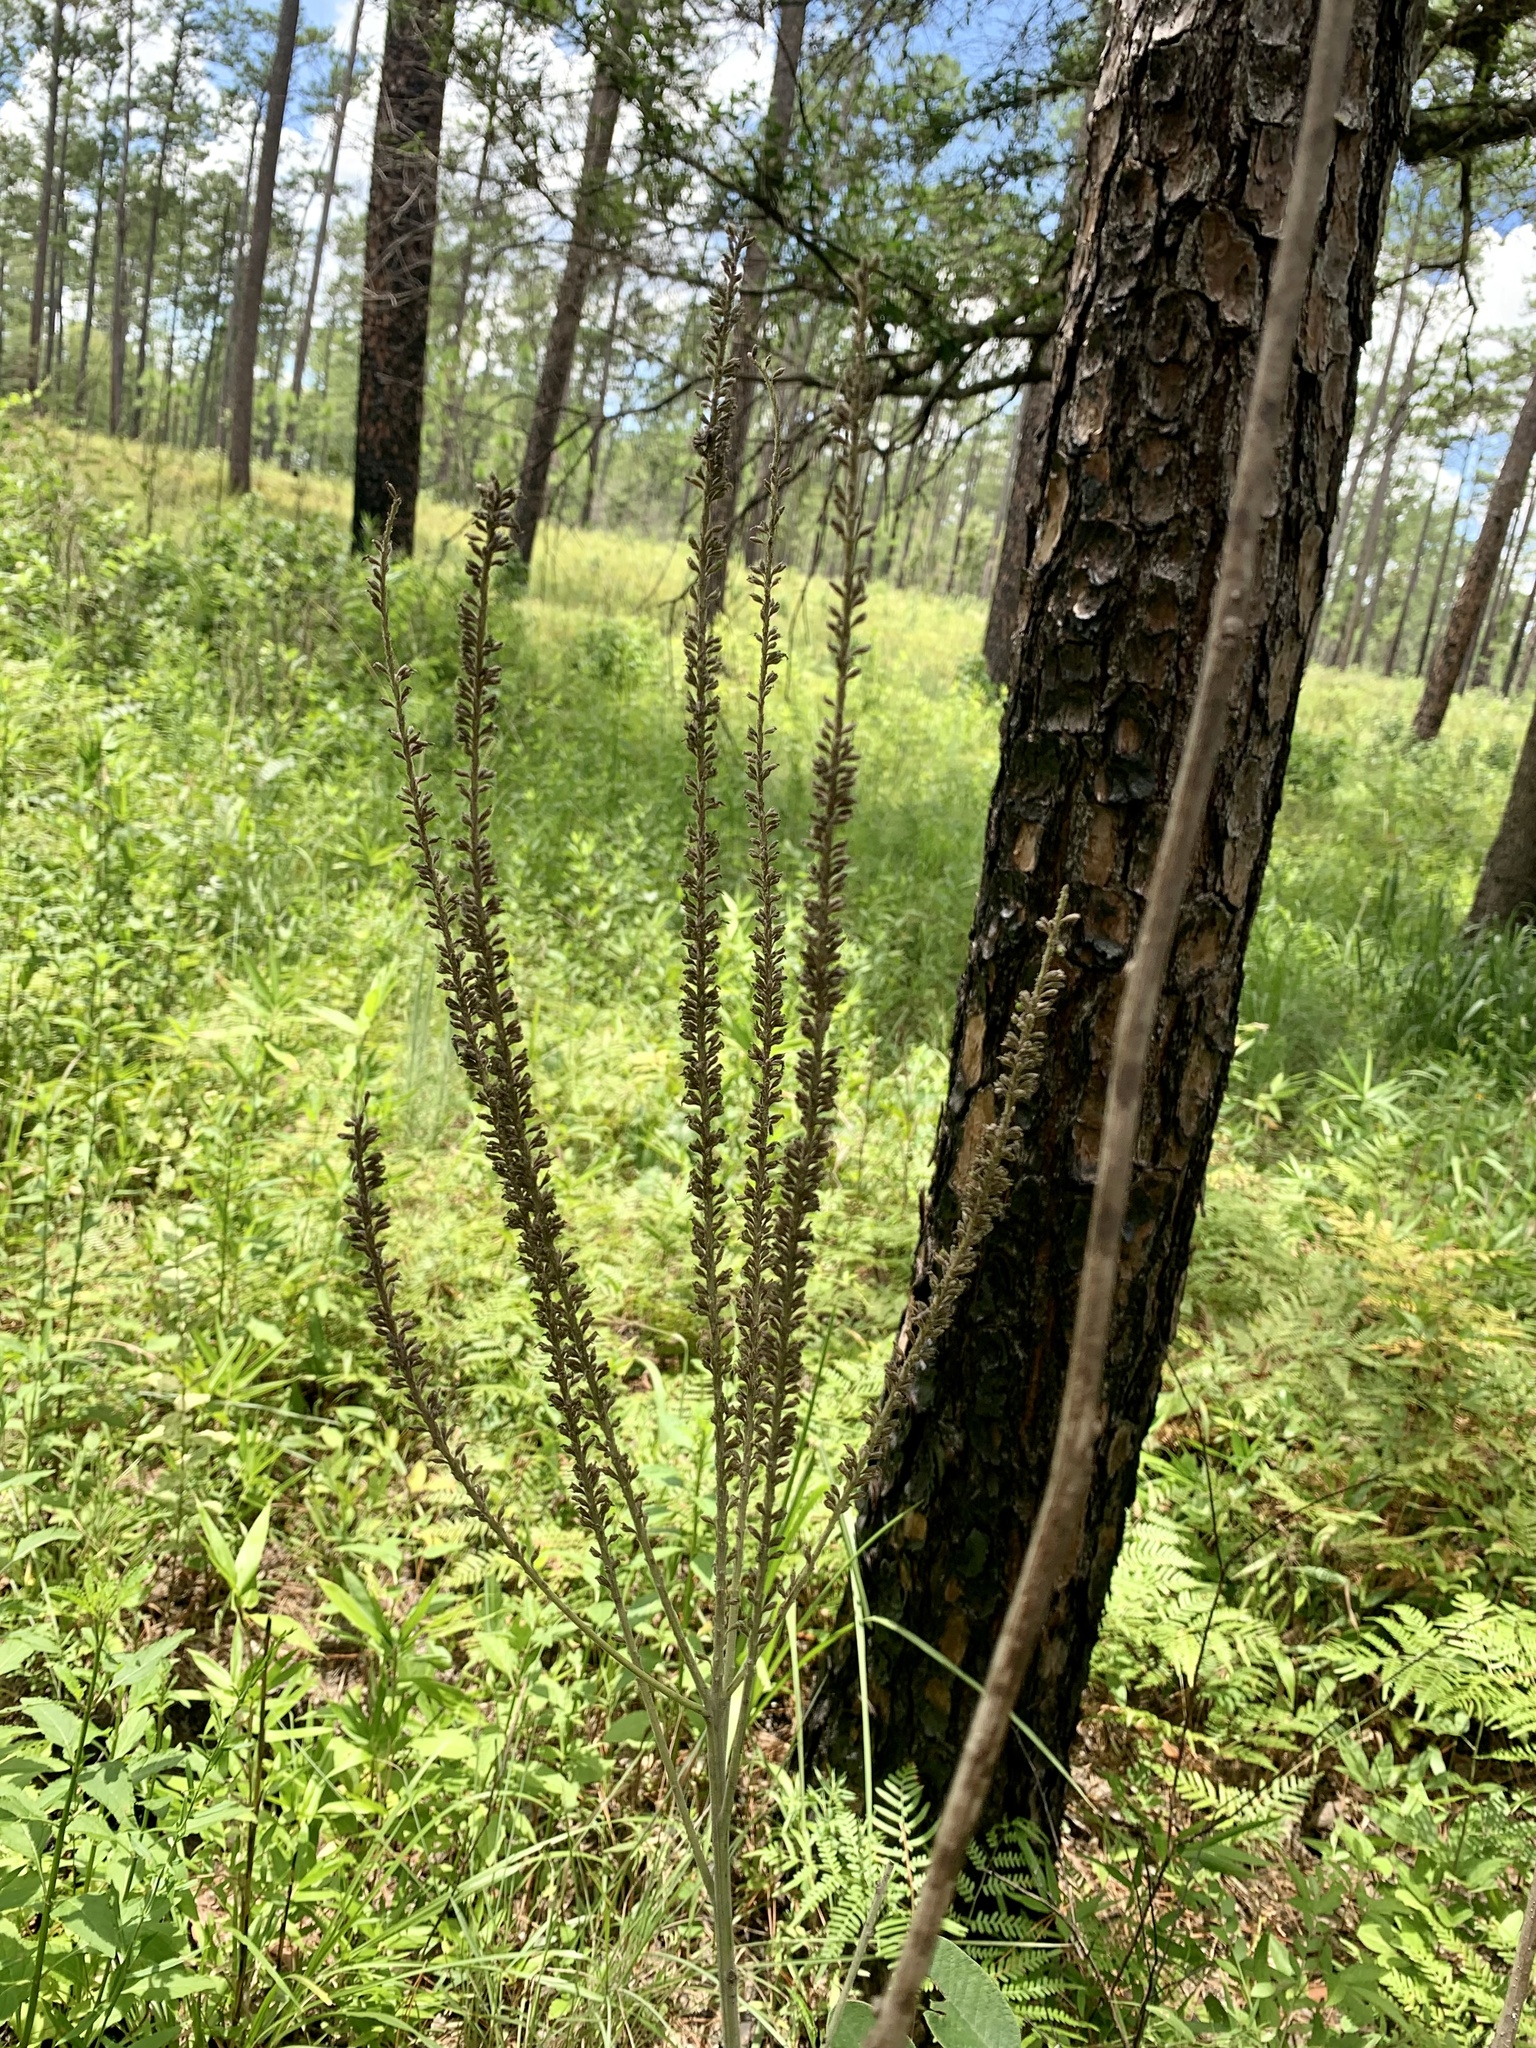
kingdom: Plantae
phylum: Tracheophyta
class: Magnoliopsida
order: Fabales
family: Fabaceae
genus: Amorpha
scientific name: Amorpha paniculata
